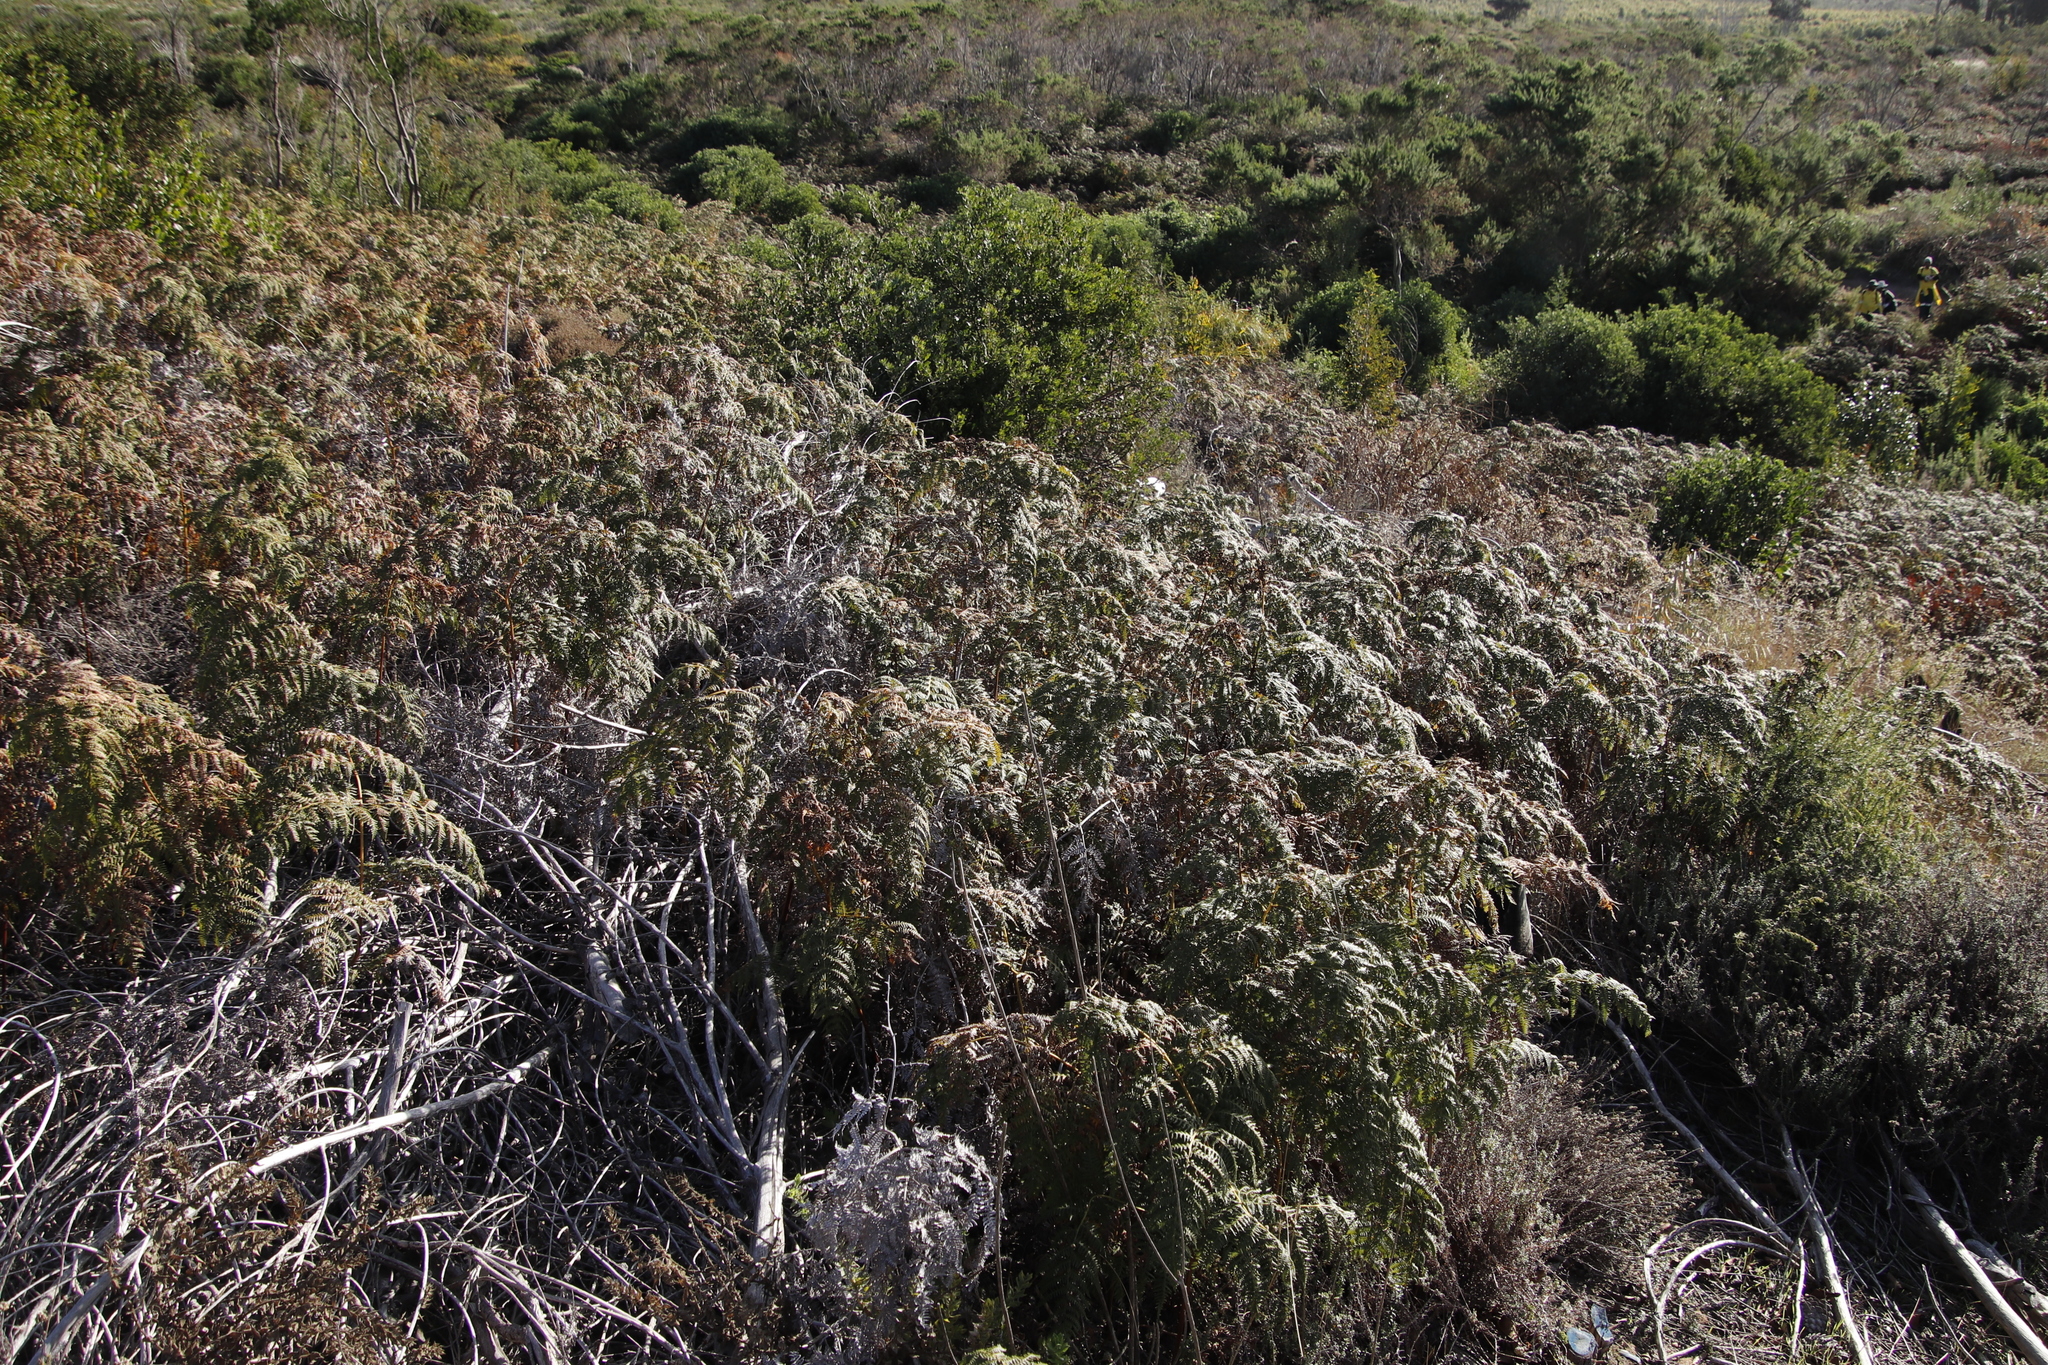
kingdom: Plantae
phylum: Tracheophyta
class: Polypodiopsida
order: Polypodiales
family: Dennstaedtiaceae
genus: Pteridium
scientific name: Pteridium aquilinum
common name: Bracken
